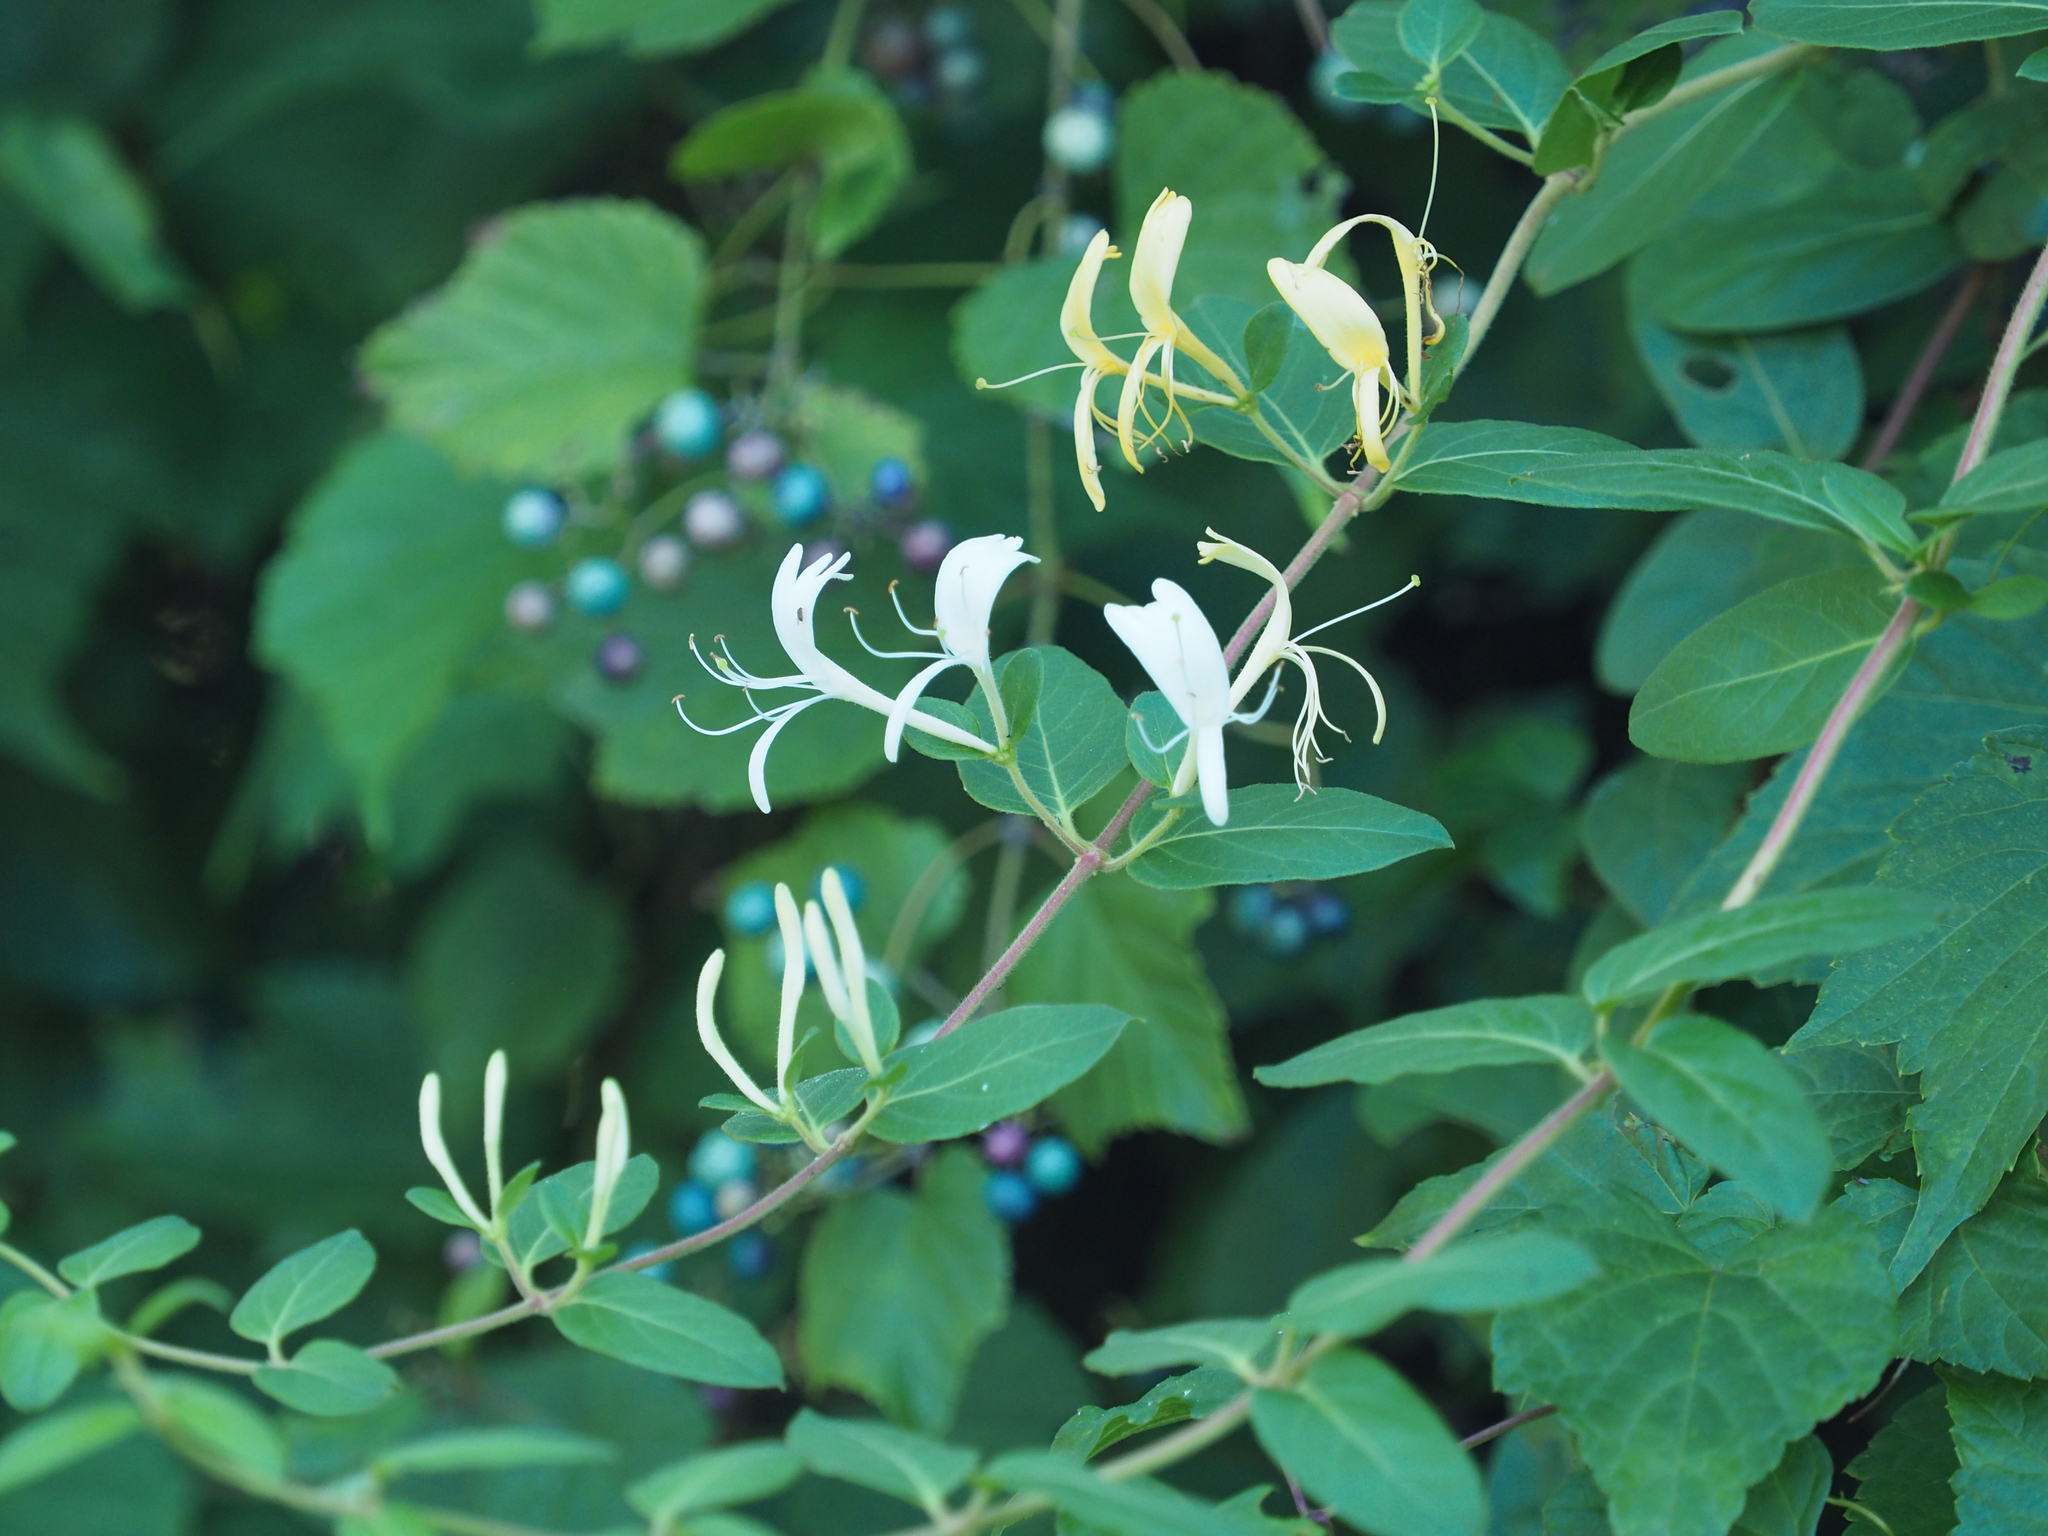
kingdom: Plantae
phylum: Tracheophyta
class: Magnoliopsida
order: Dipsacales
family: Caprifoliaceae
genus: Lonicera
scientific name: Lonicera japonica
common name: Japanese honeysuckle
